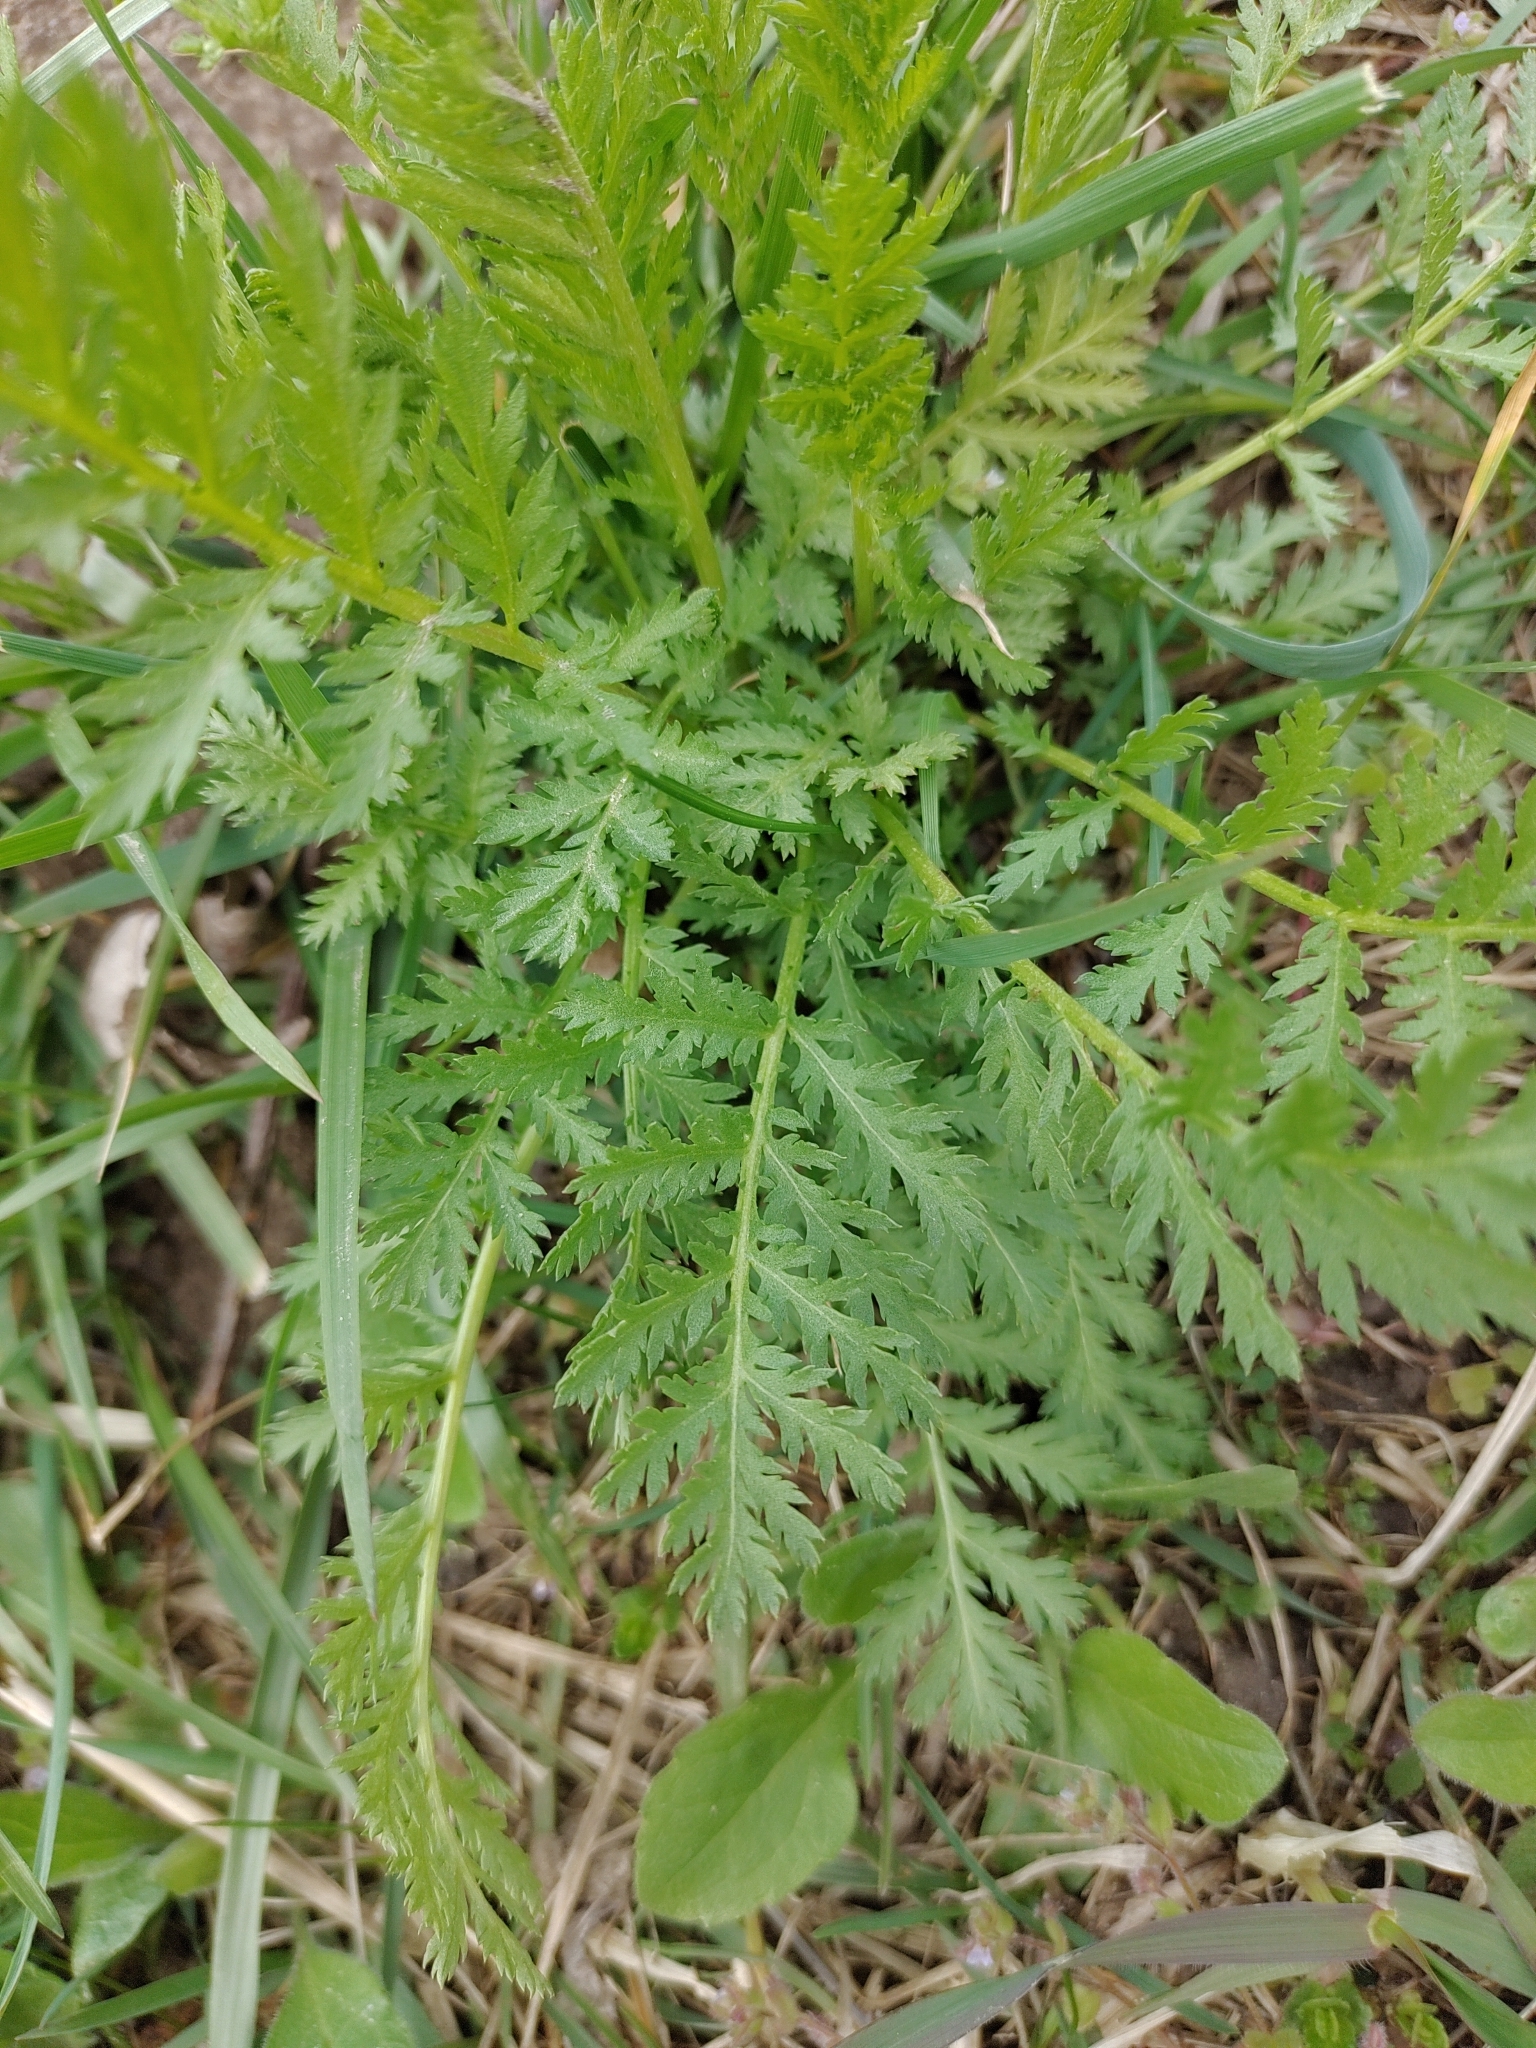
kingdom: Plantae
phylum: Tracheophyta
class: Magnoliopsida
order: Asterales
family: Asteraceae
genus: Tanacetum
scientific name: Tanacetum vulgare
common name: Common tansy
